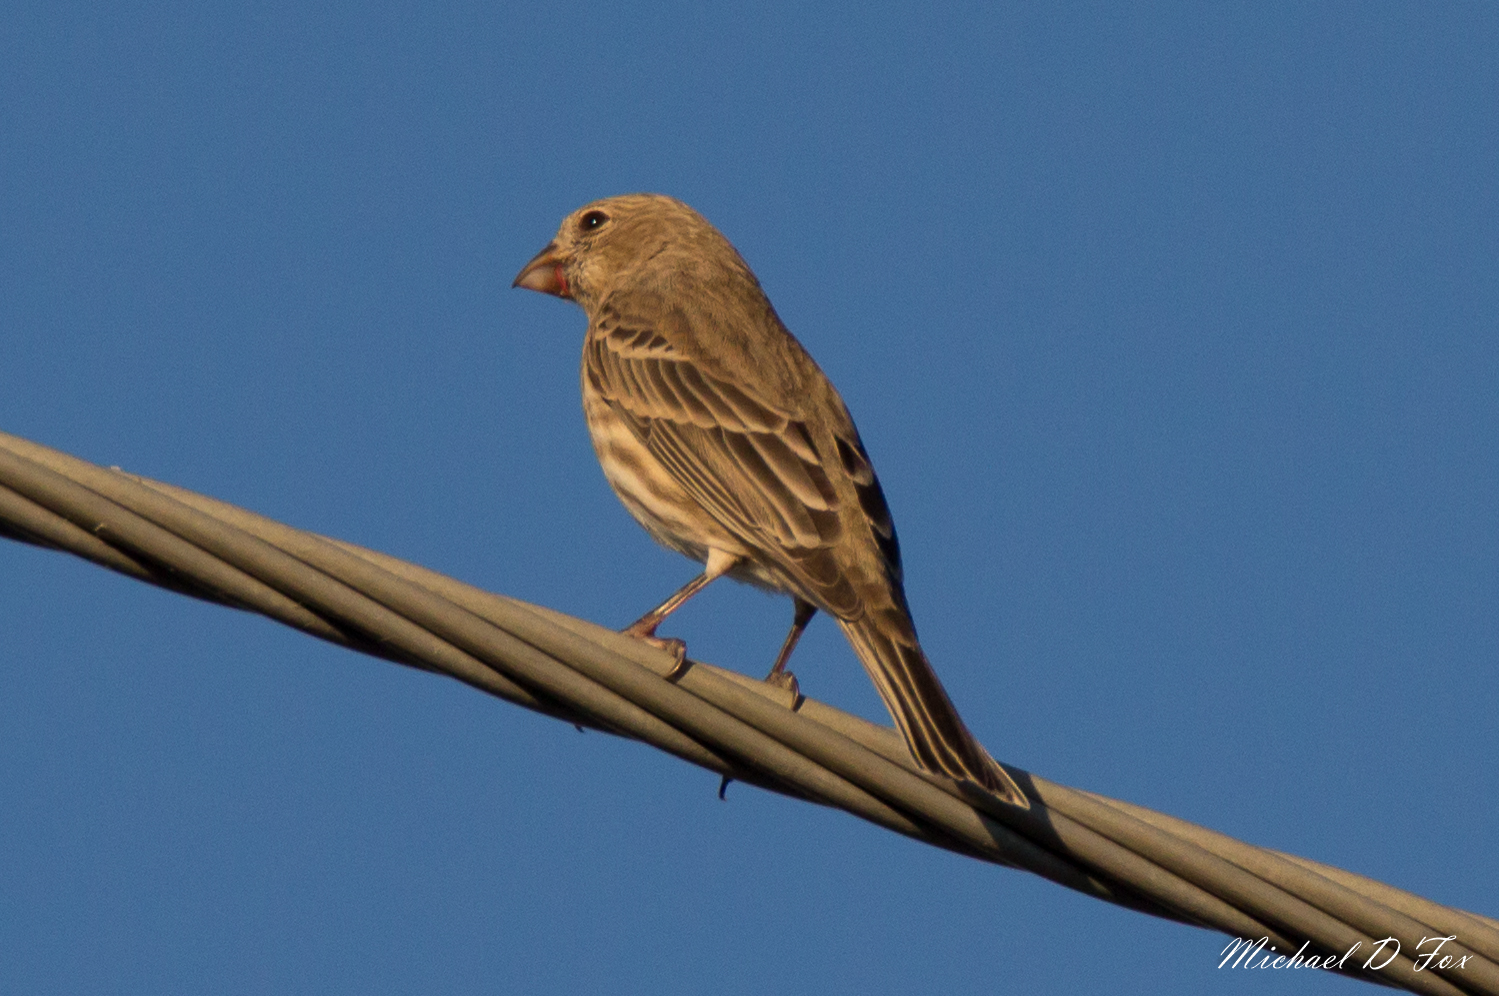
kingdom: Animalia
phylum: Chordata
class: Aves
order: Passeriformes
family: Fringillidae
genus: Haemorhous
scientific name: Haemorhous mexicanus
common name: House finch
